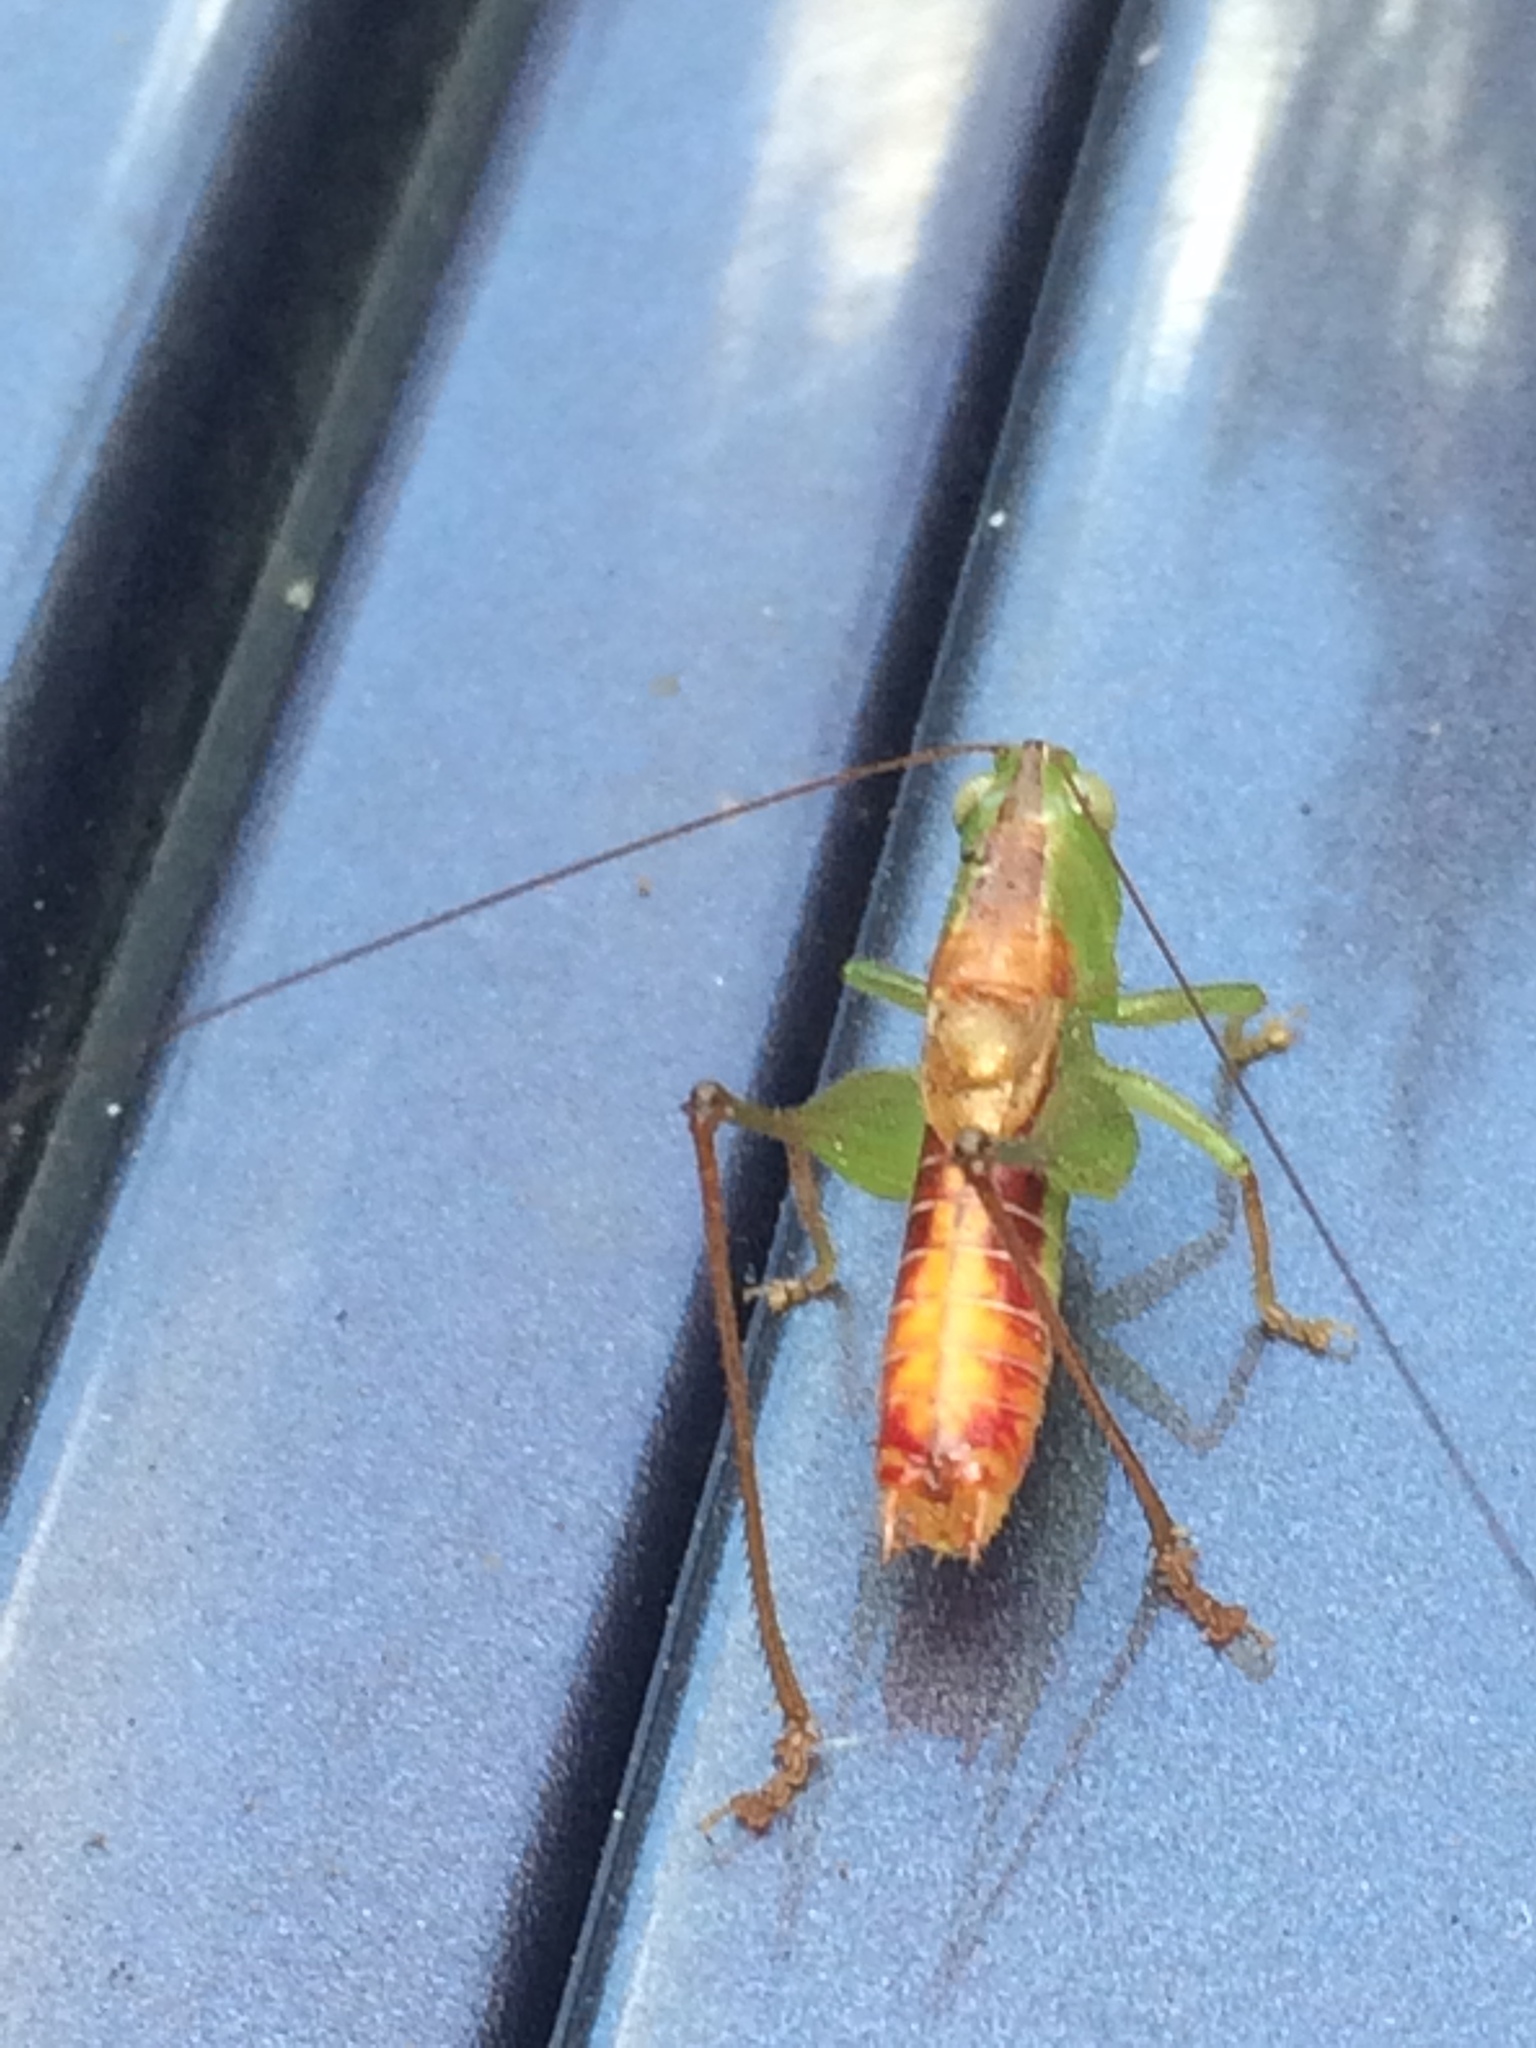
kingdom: Animalia
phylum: Arthropoda
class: Insecta
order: Orthoptera
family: Tettigoniidae
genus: Odontoxiphidium
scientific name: Odontoxiphidium apterum
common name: Wingless meadow katydid
